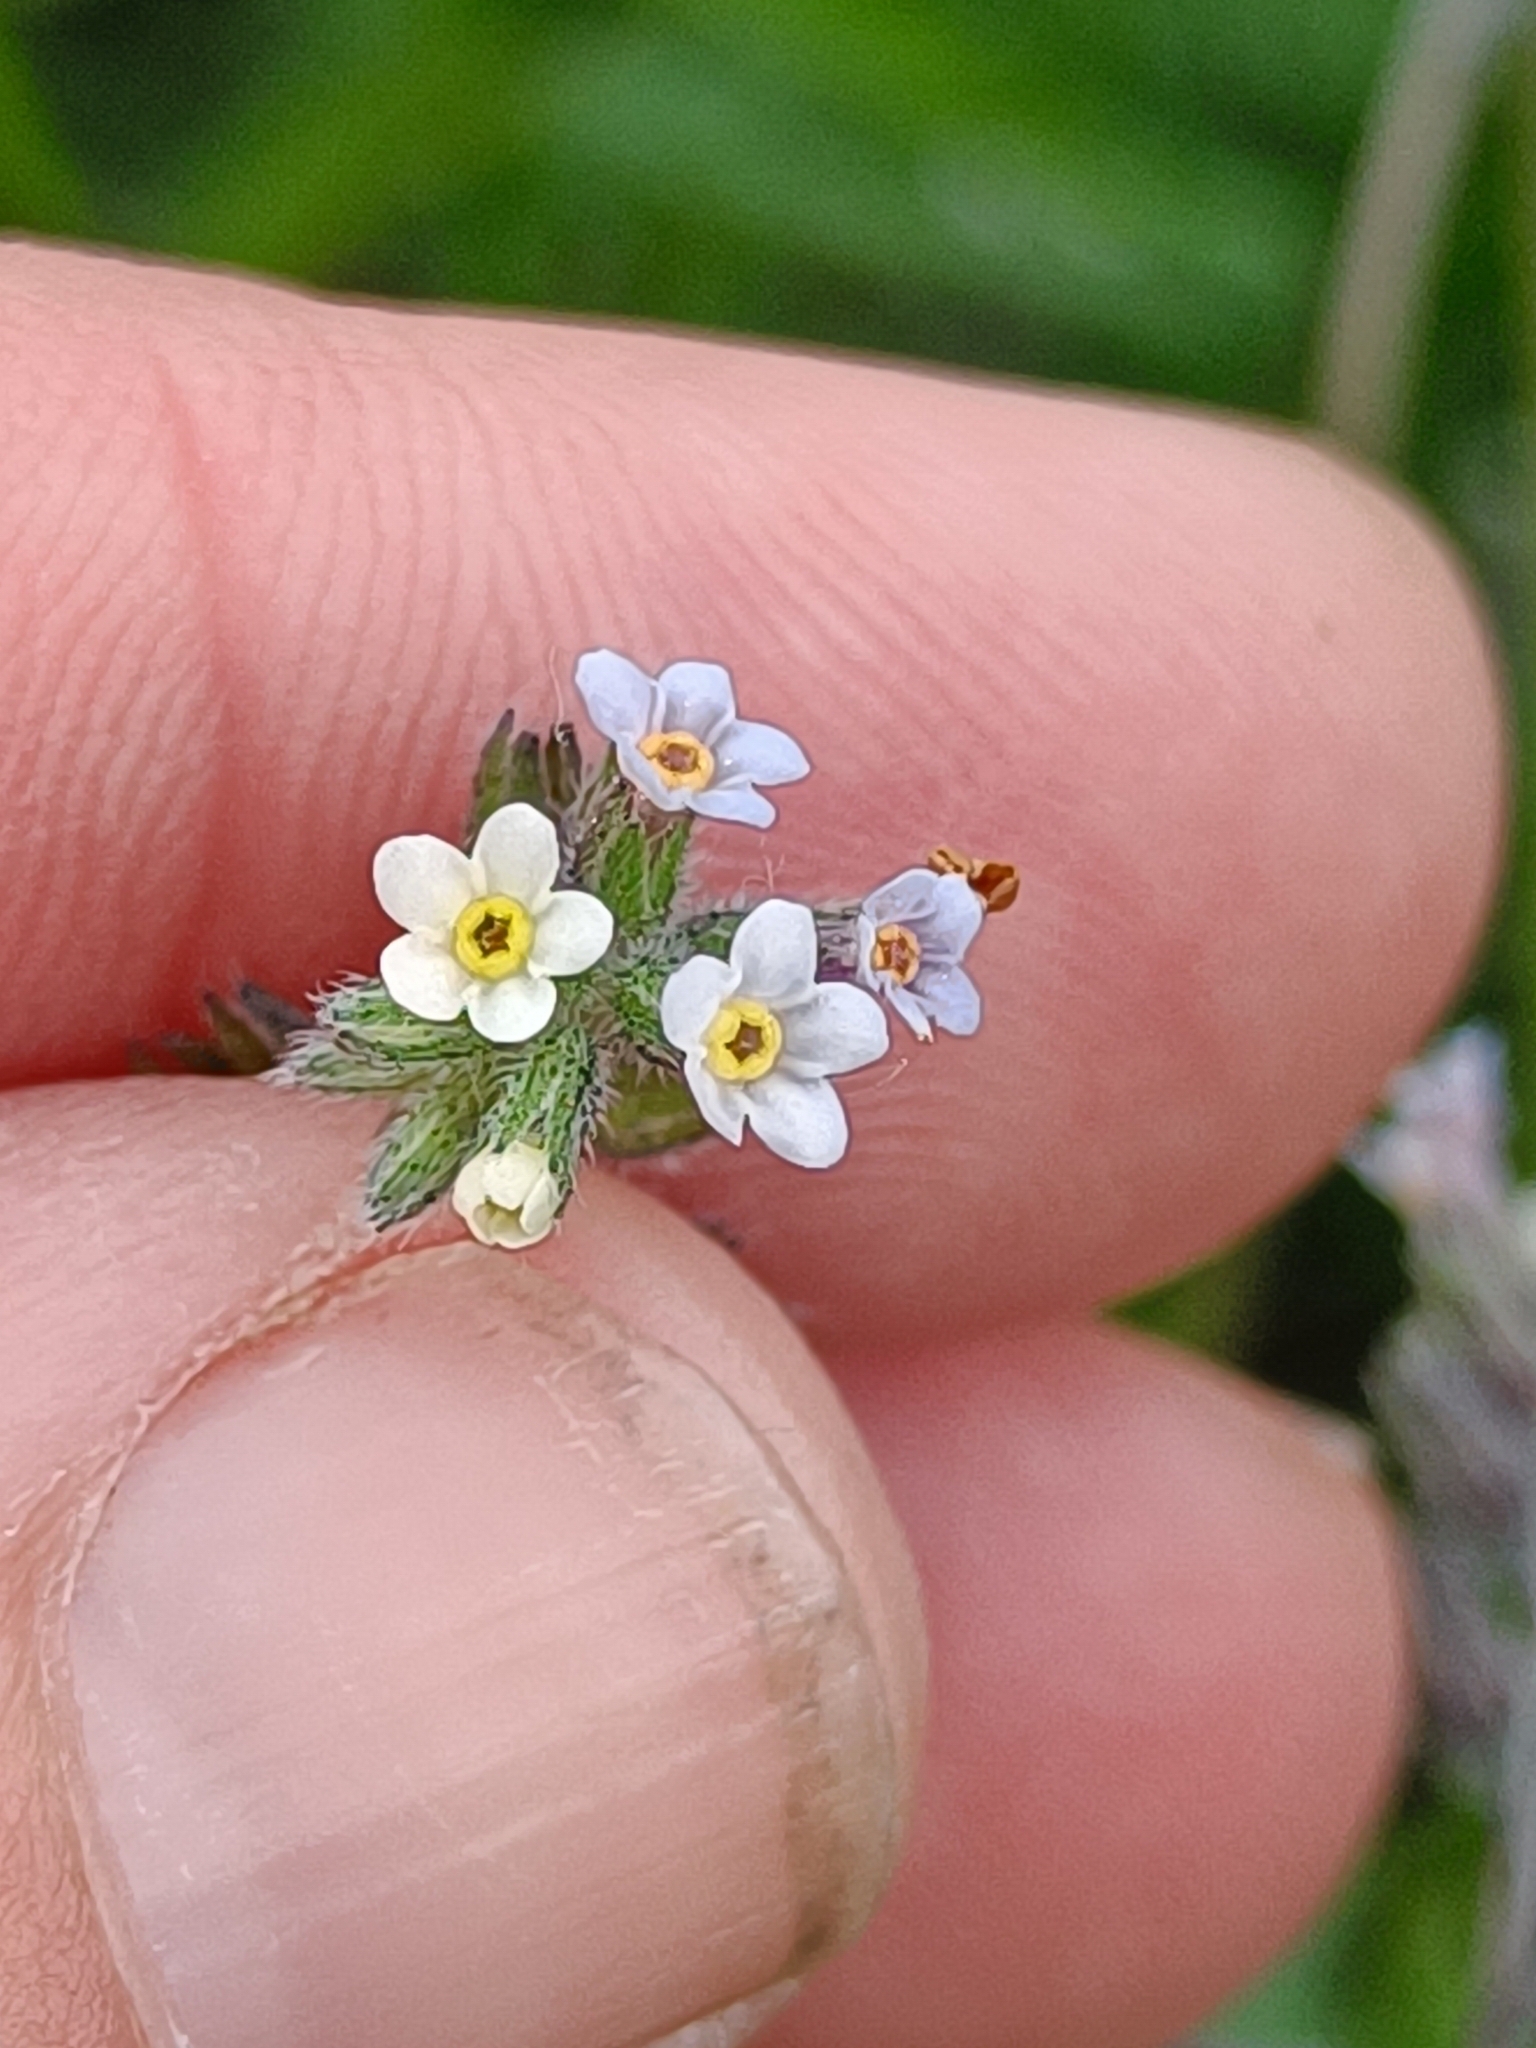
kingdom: Plantae
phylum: Tracheophyta
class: Magnoliopsida
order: Boraginales
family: Boraginaceae
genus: Myosotis
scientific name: Myosotis discolor
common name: Changing forget-me-not
